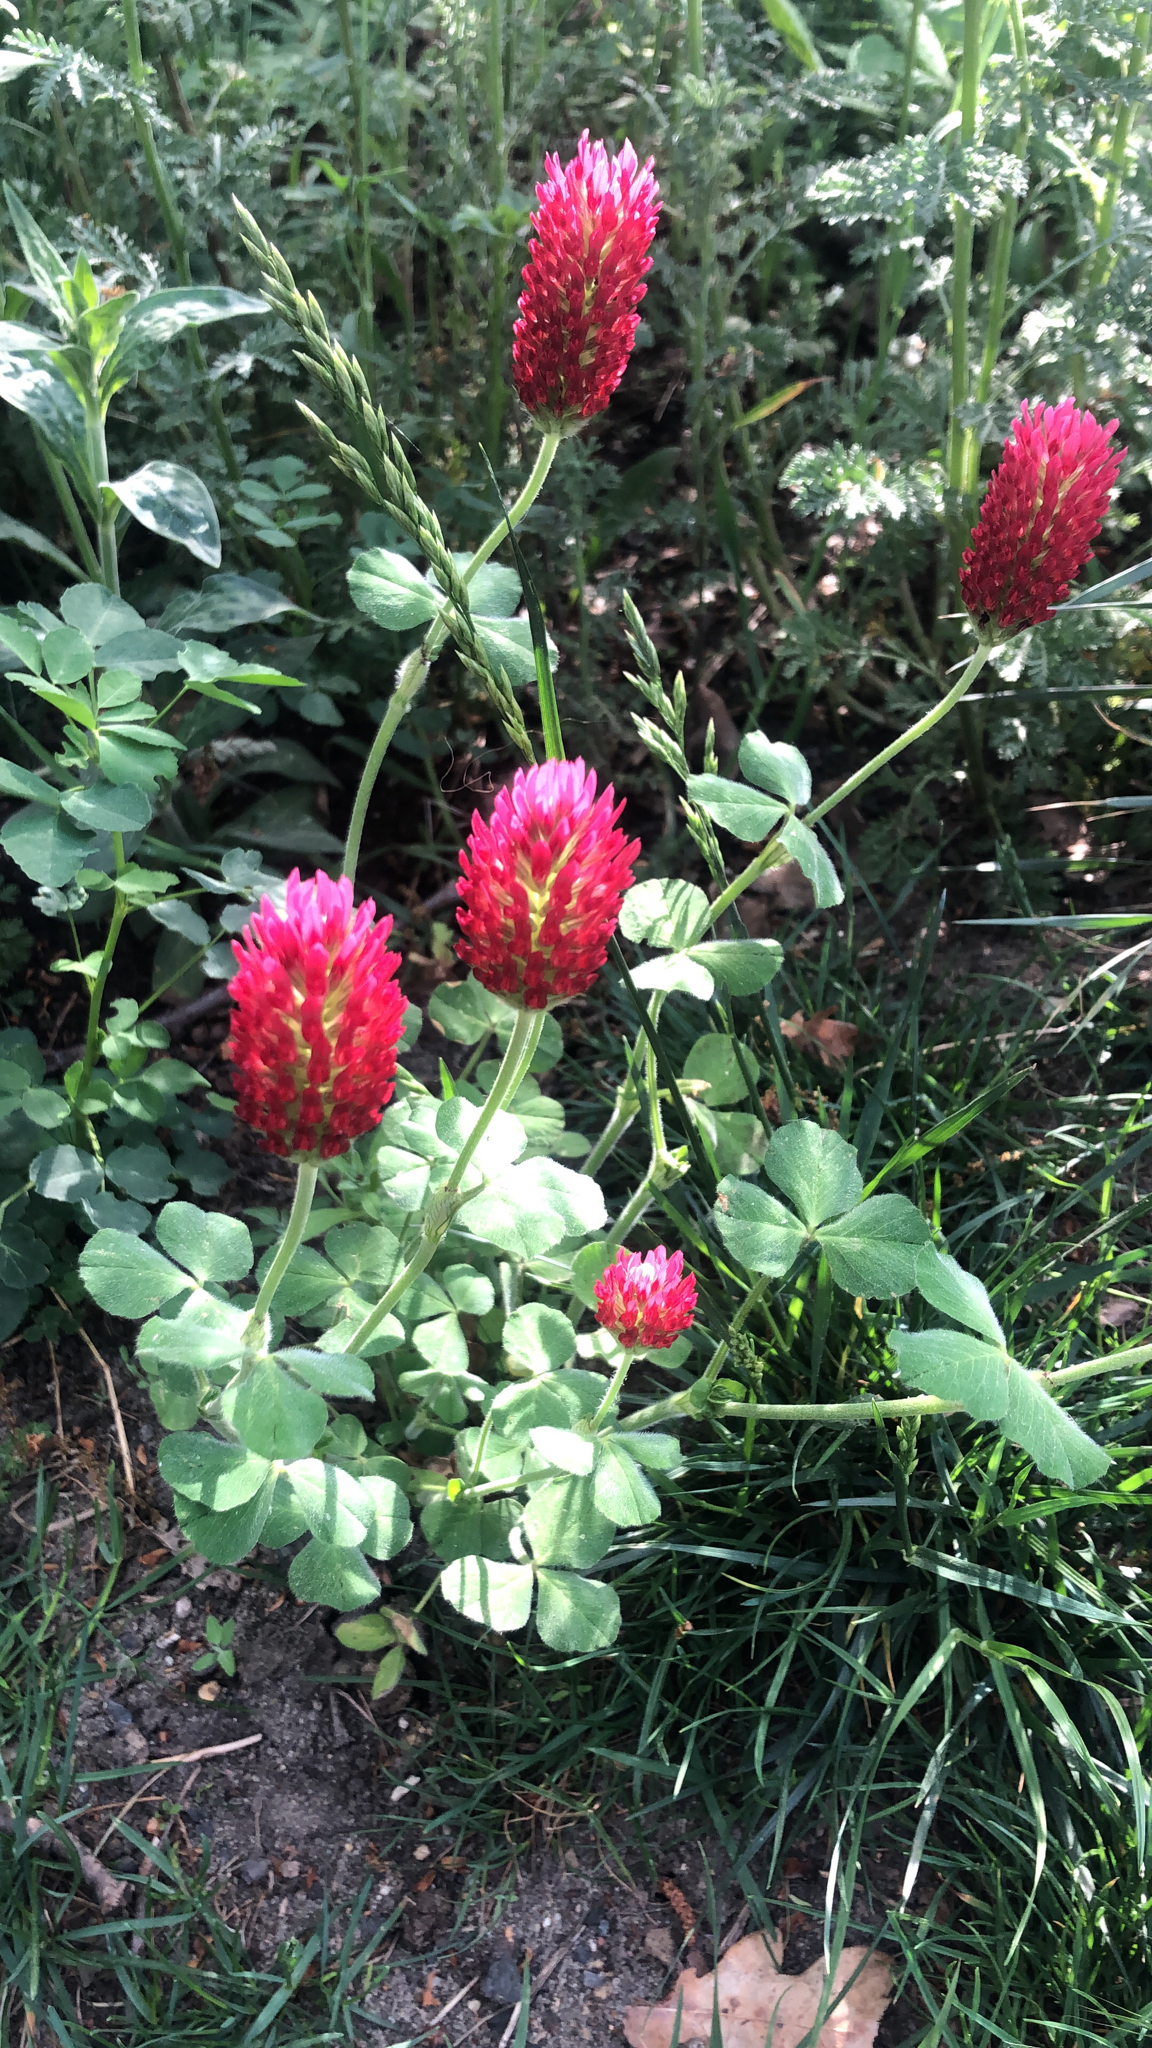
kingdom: Plantae
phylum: Tracheophyta
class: Magnoliopsida
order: Fabales
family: Fabaceae
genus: Trifolium
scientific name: Trifolium incarnatum
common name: Crimson clover
